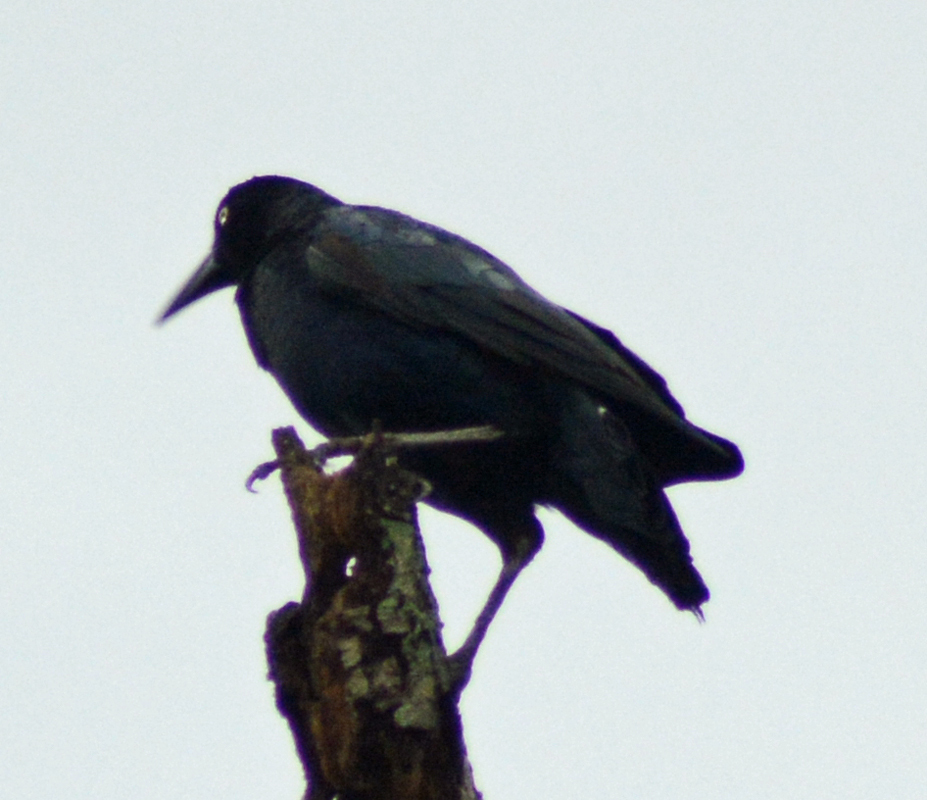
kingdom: Animalia
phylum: Chordata
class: Aves
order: Passeriformes
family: Icteridae
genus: Quiscalus
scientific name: Quiscalus mexicanus
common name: Great-tailed grackle
